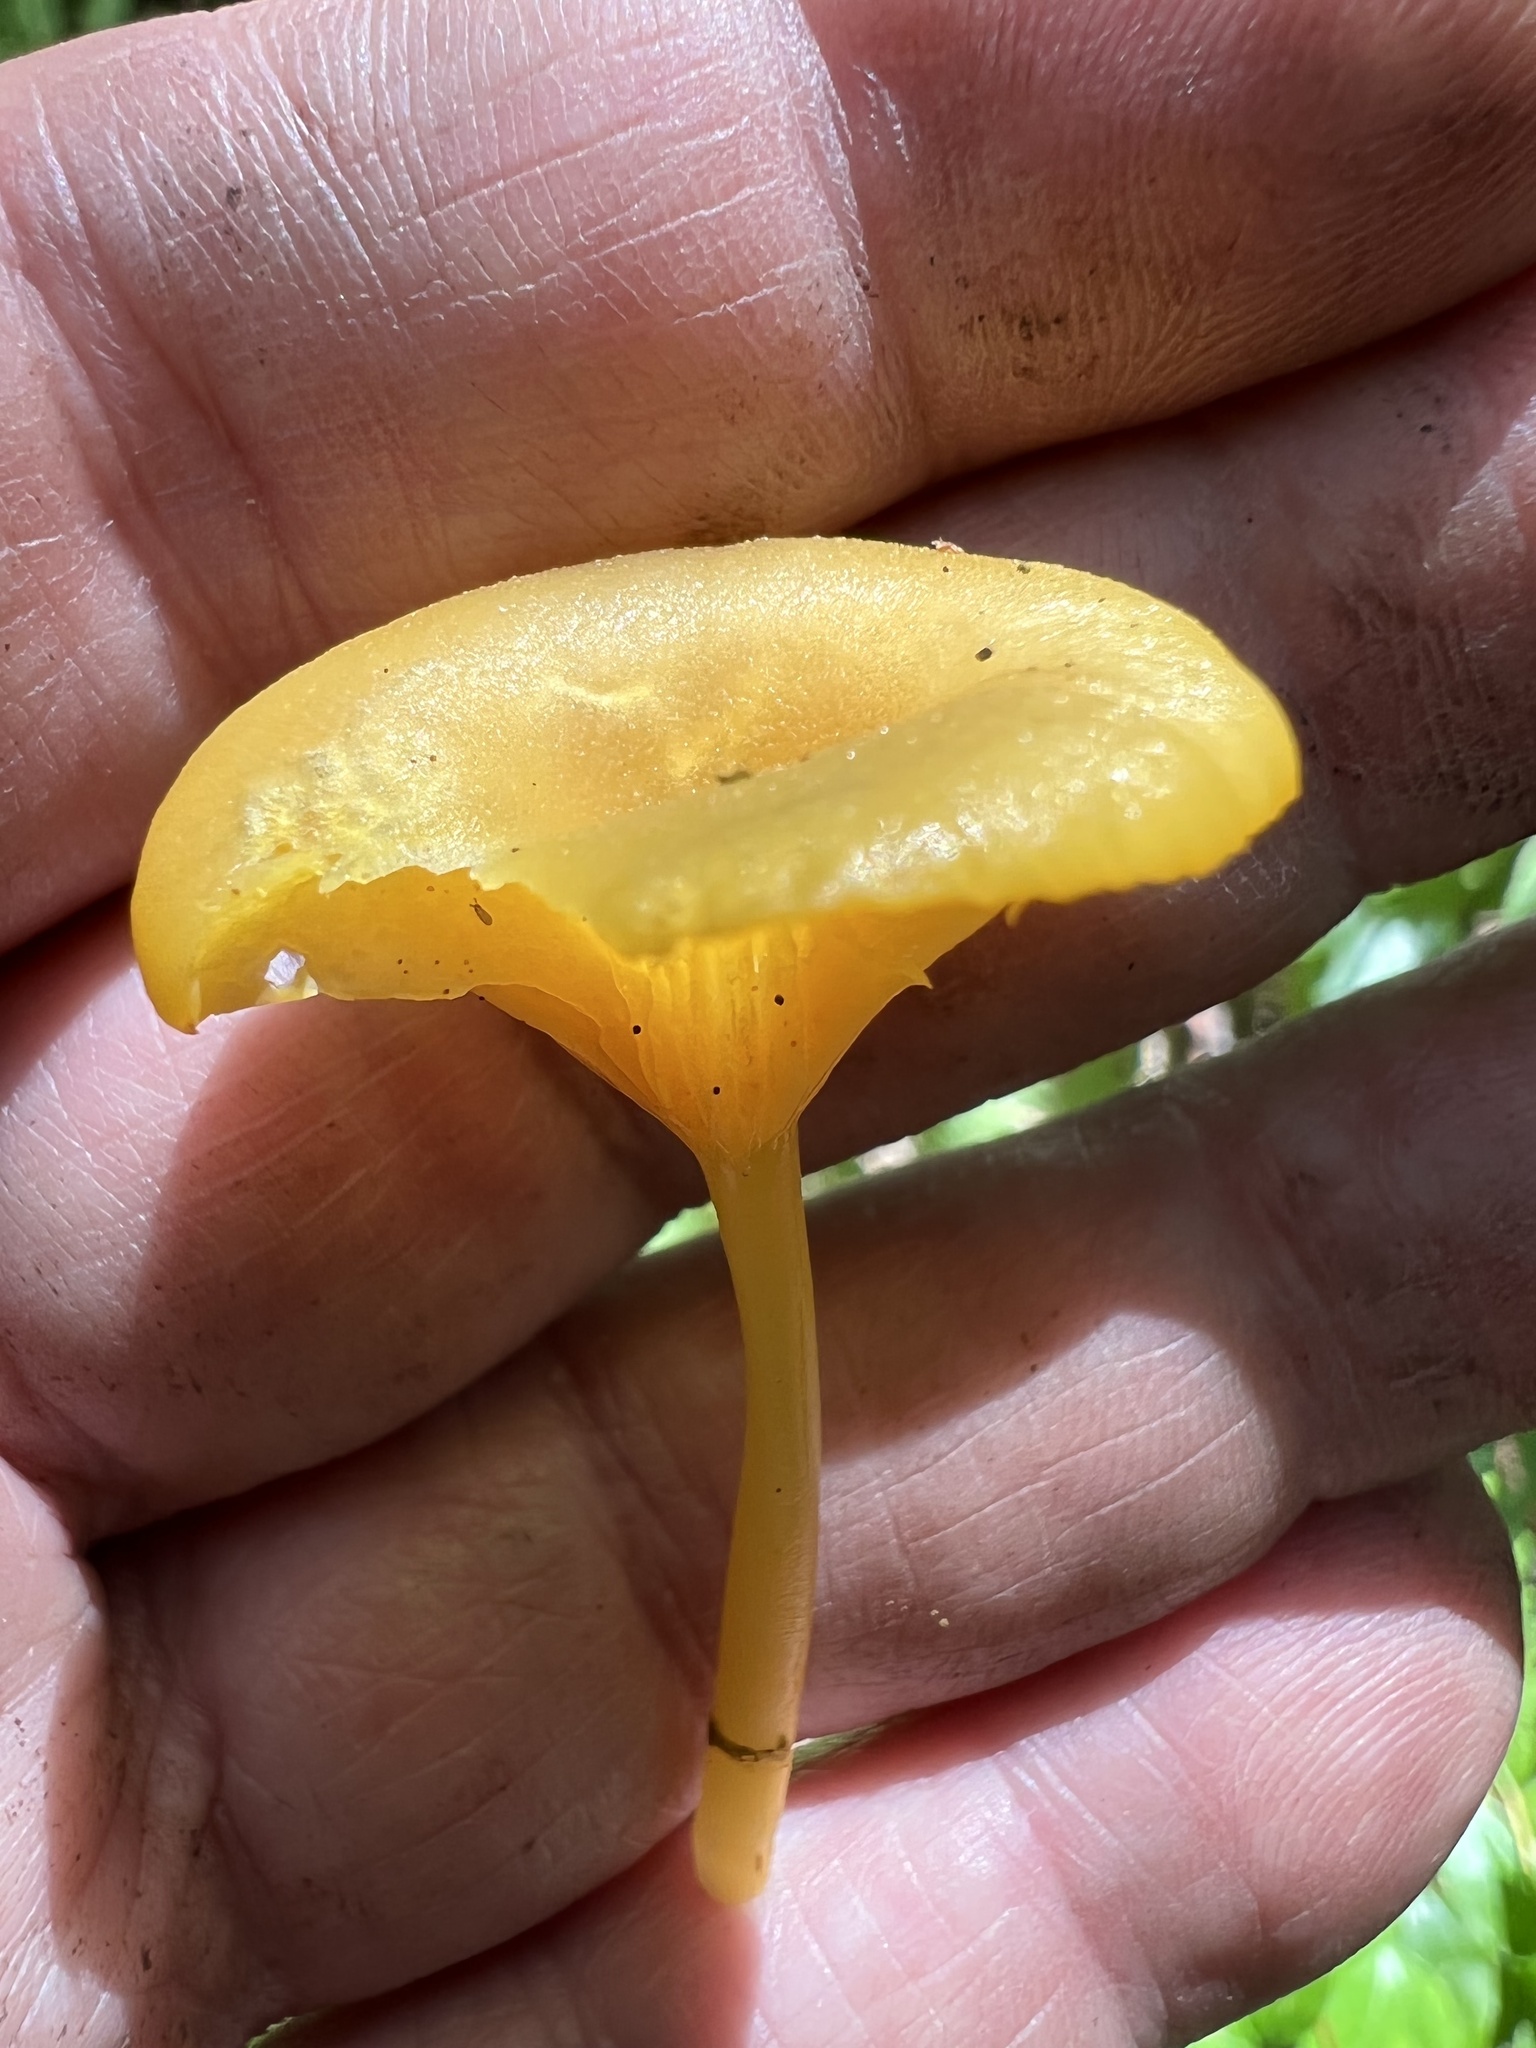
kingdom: Fungi
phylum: Basidiomycota
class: Agaricomycetes
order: Agaricales
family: Hygrophoraceae
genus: Gloioxanthomyces
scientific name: Gloioxanthomyces nitidus
